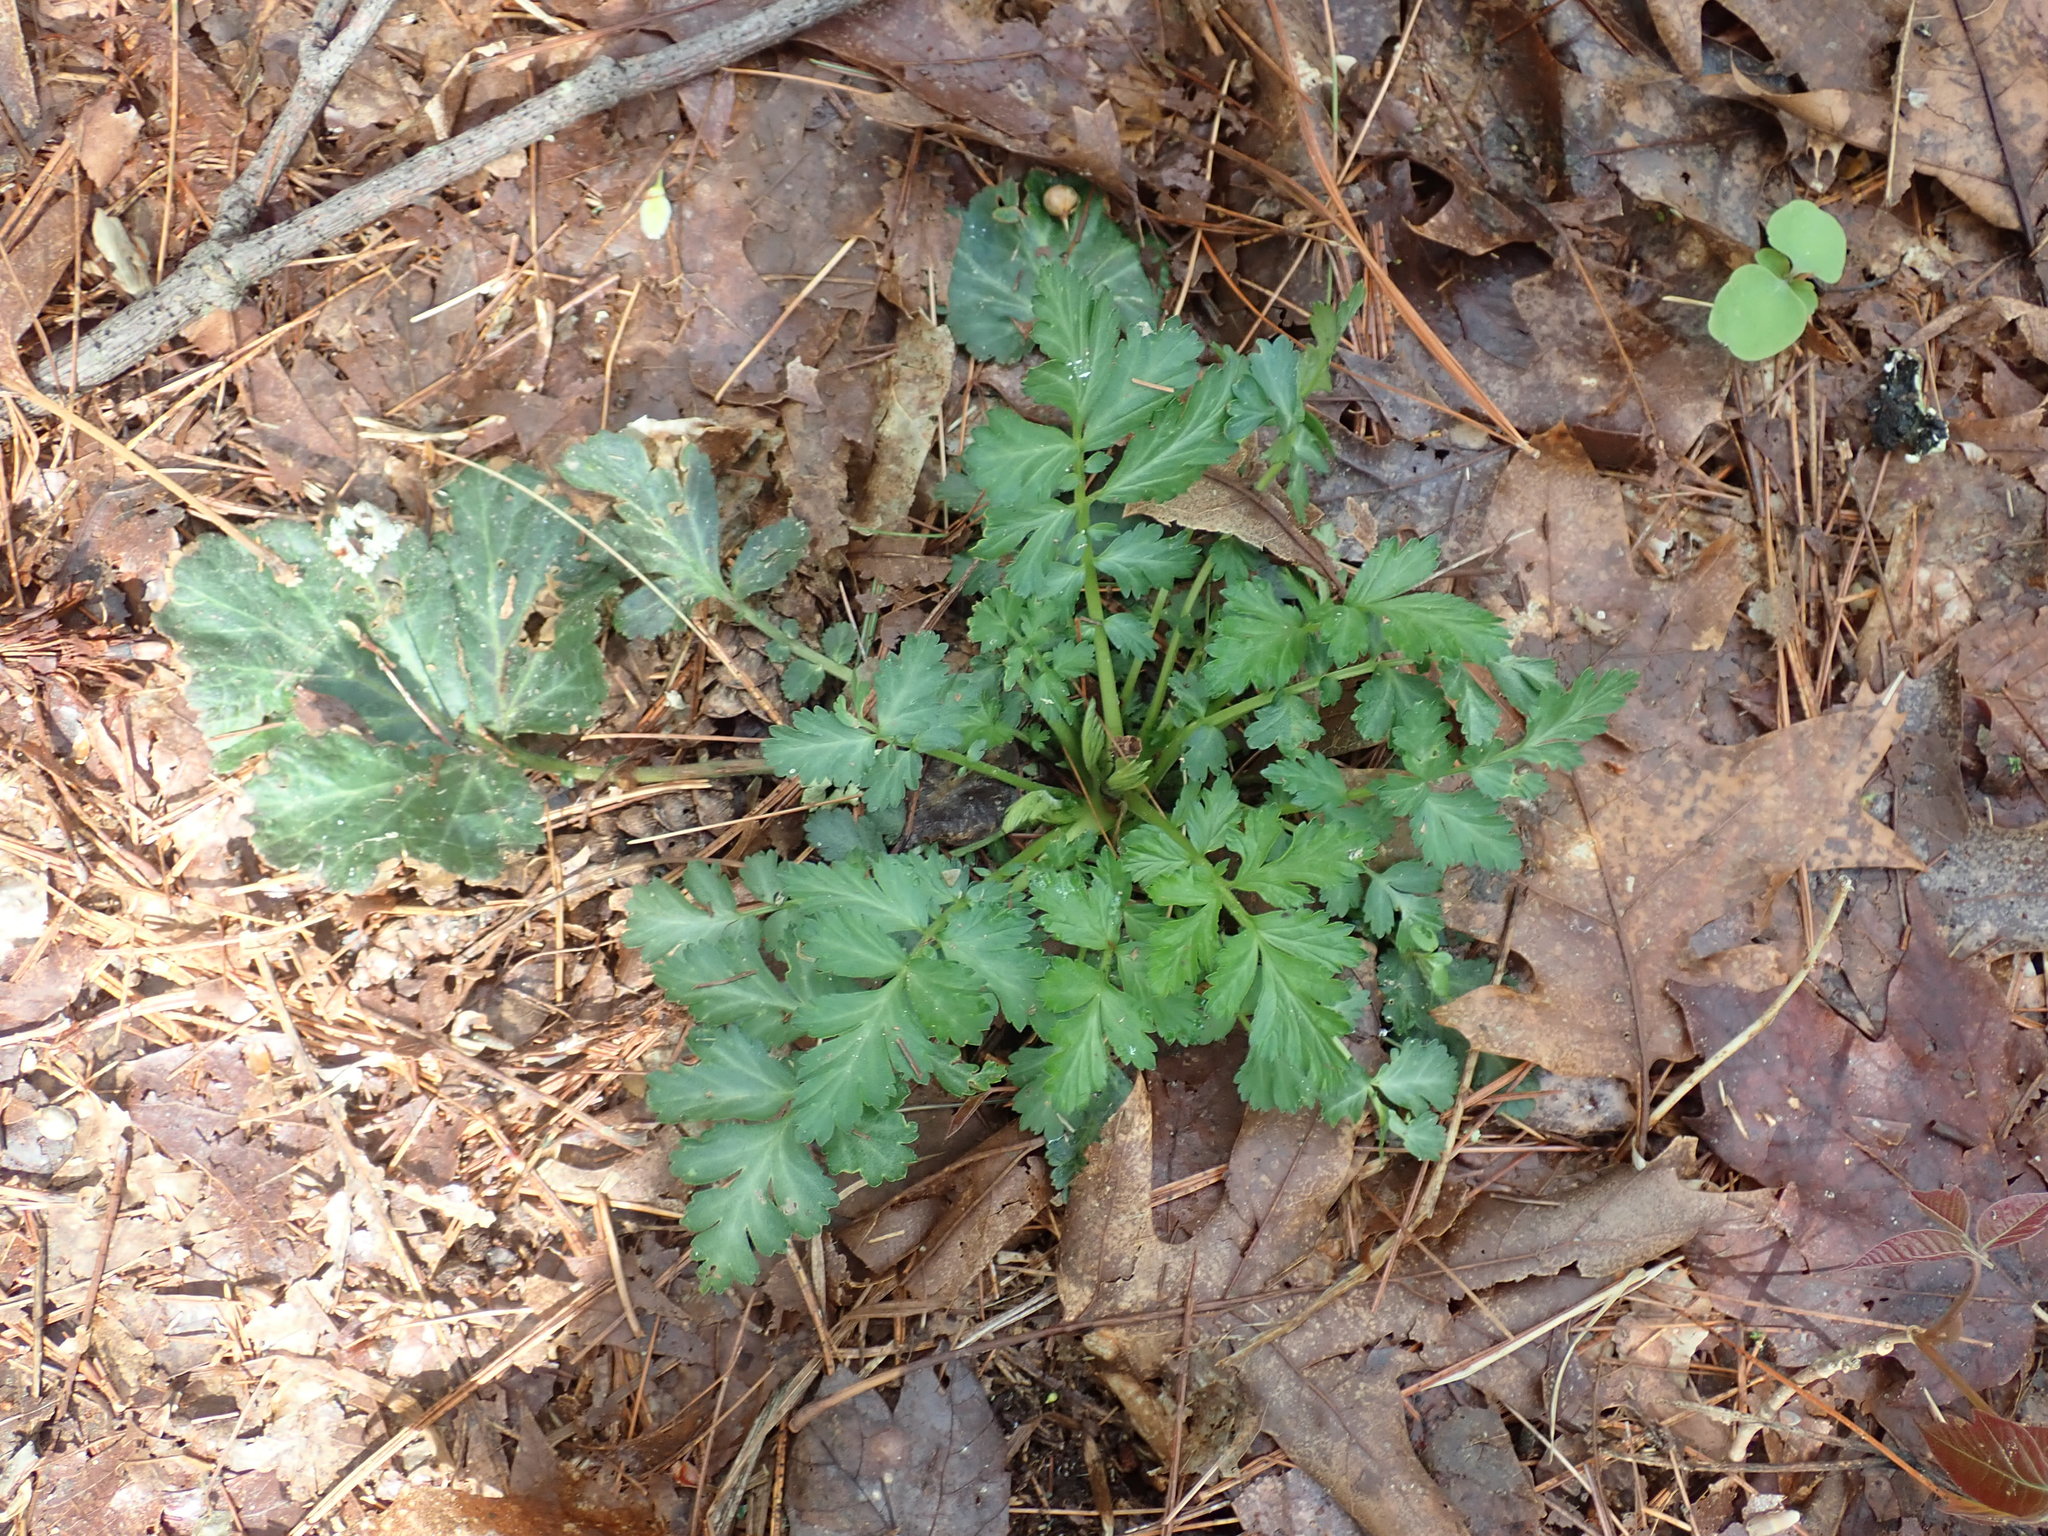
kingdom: Plantae
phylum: Tracheophyta
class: Magnoliopsida
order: Rosales
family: Rosaceae
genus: Geum
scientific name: Geum
